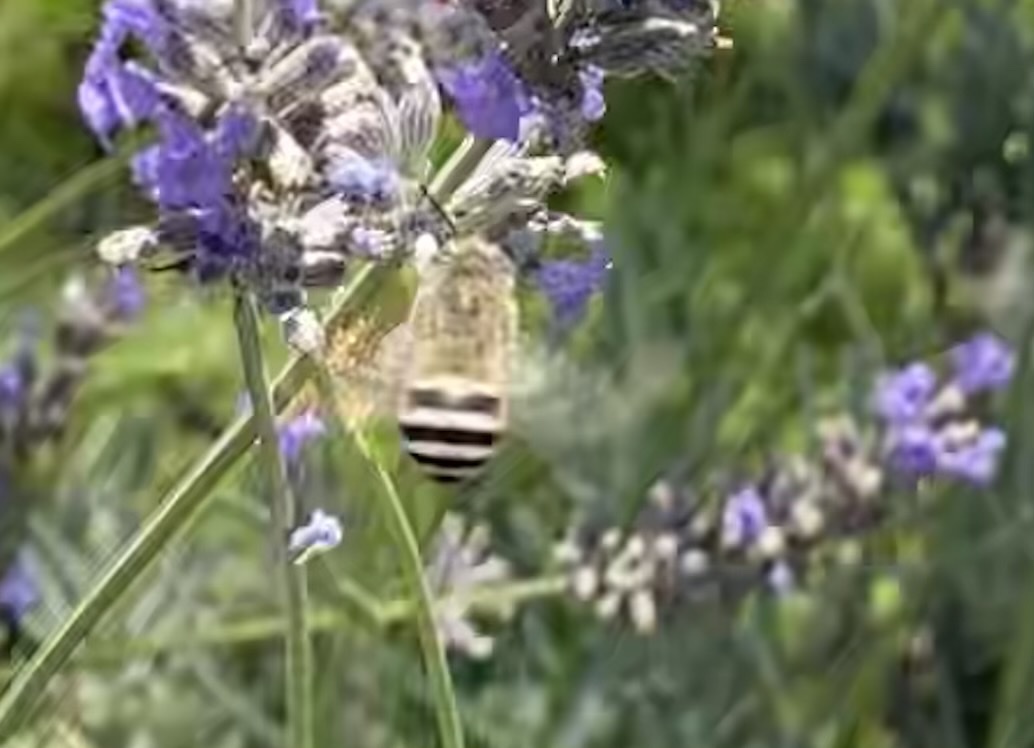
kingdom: Animalia
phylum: Arthropoda
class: Insecta
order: Hymenoptera
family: Apidae
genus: Anthophora
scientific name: Anthophora urbana
